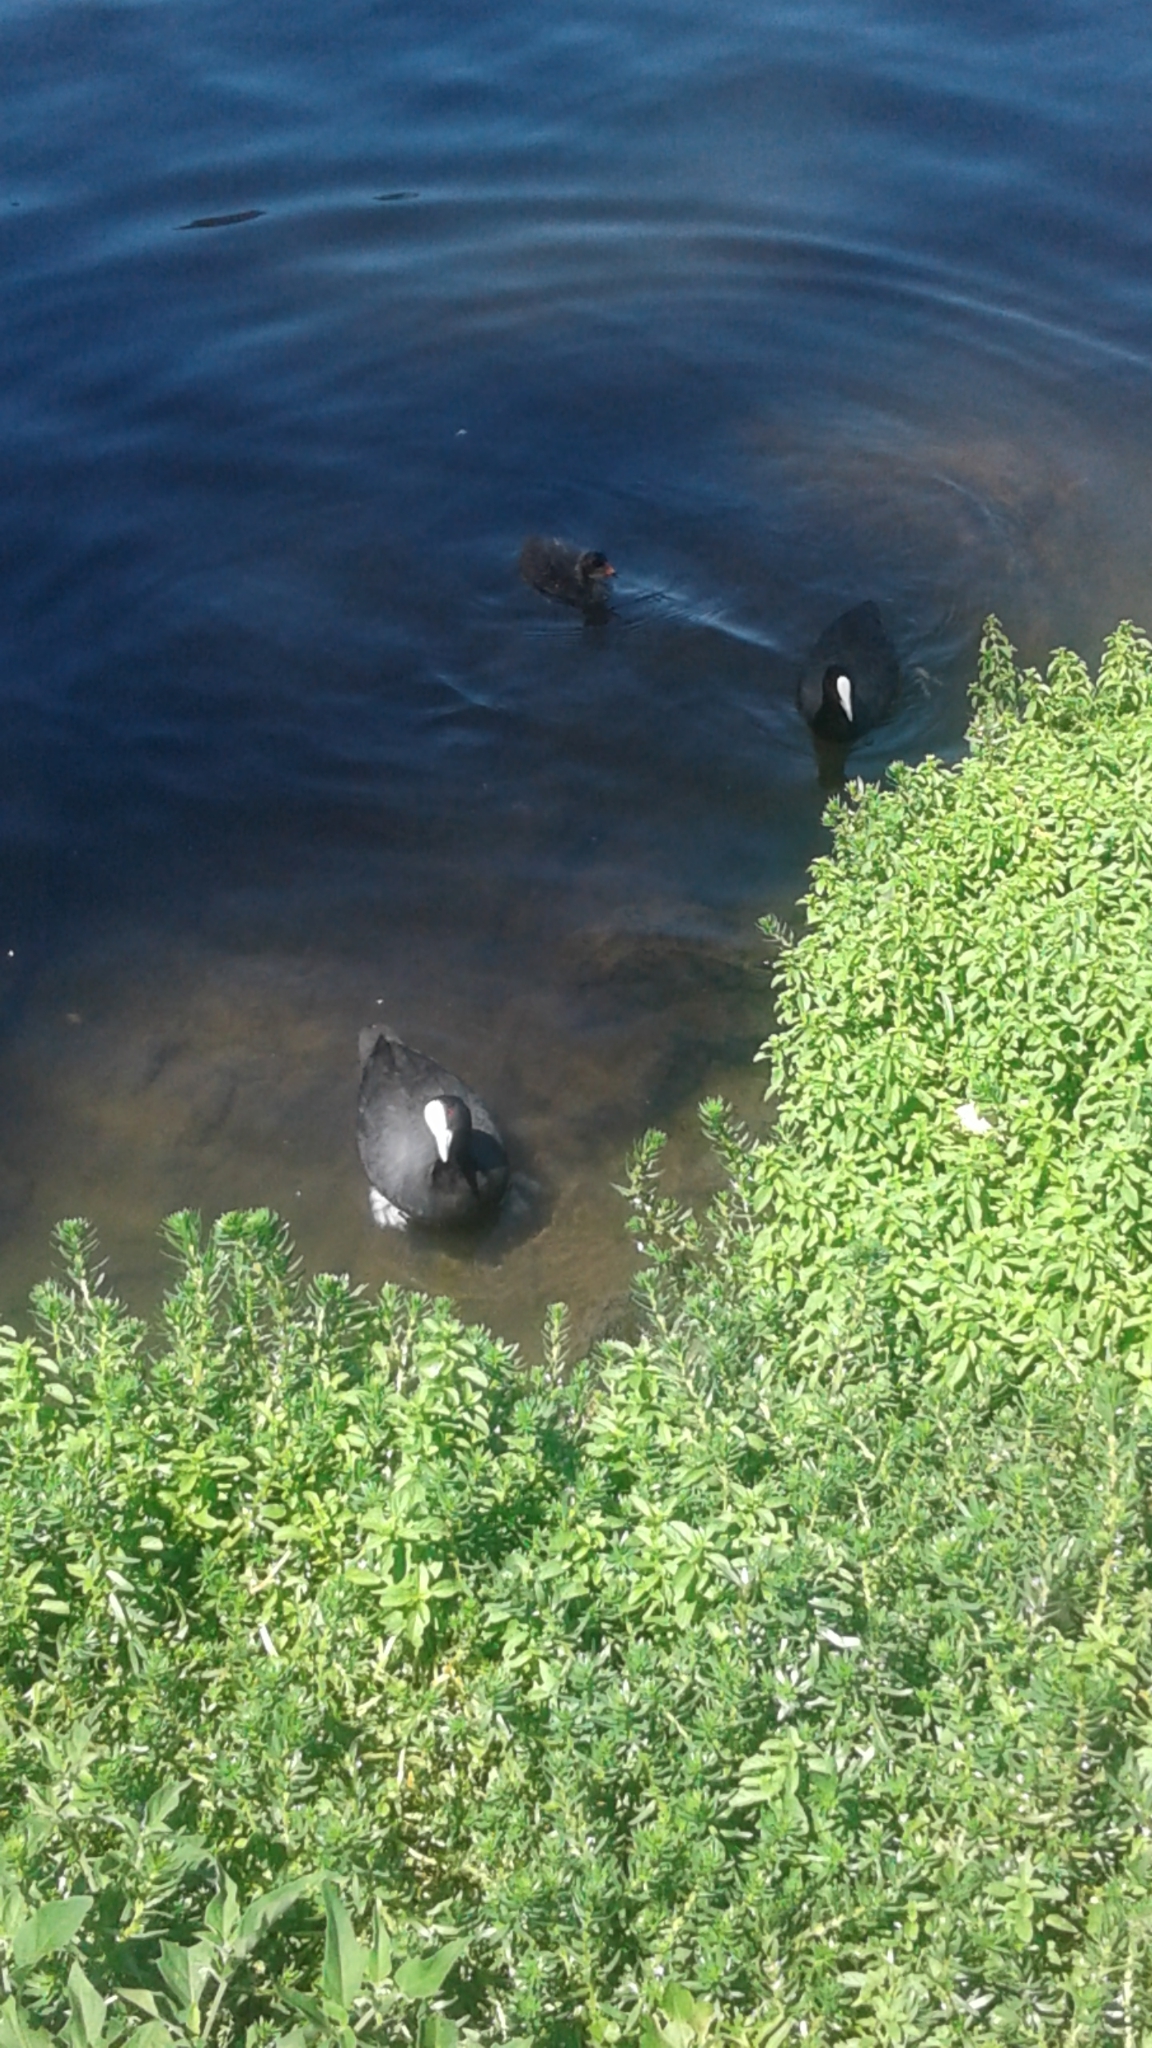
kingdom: Animalia
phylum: Chordata
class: Aves
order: Gruiformes
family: Rallidae
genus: Fulica
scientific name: Fulica atra
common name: Eurasian coot
